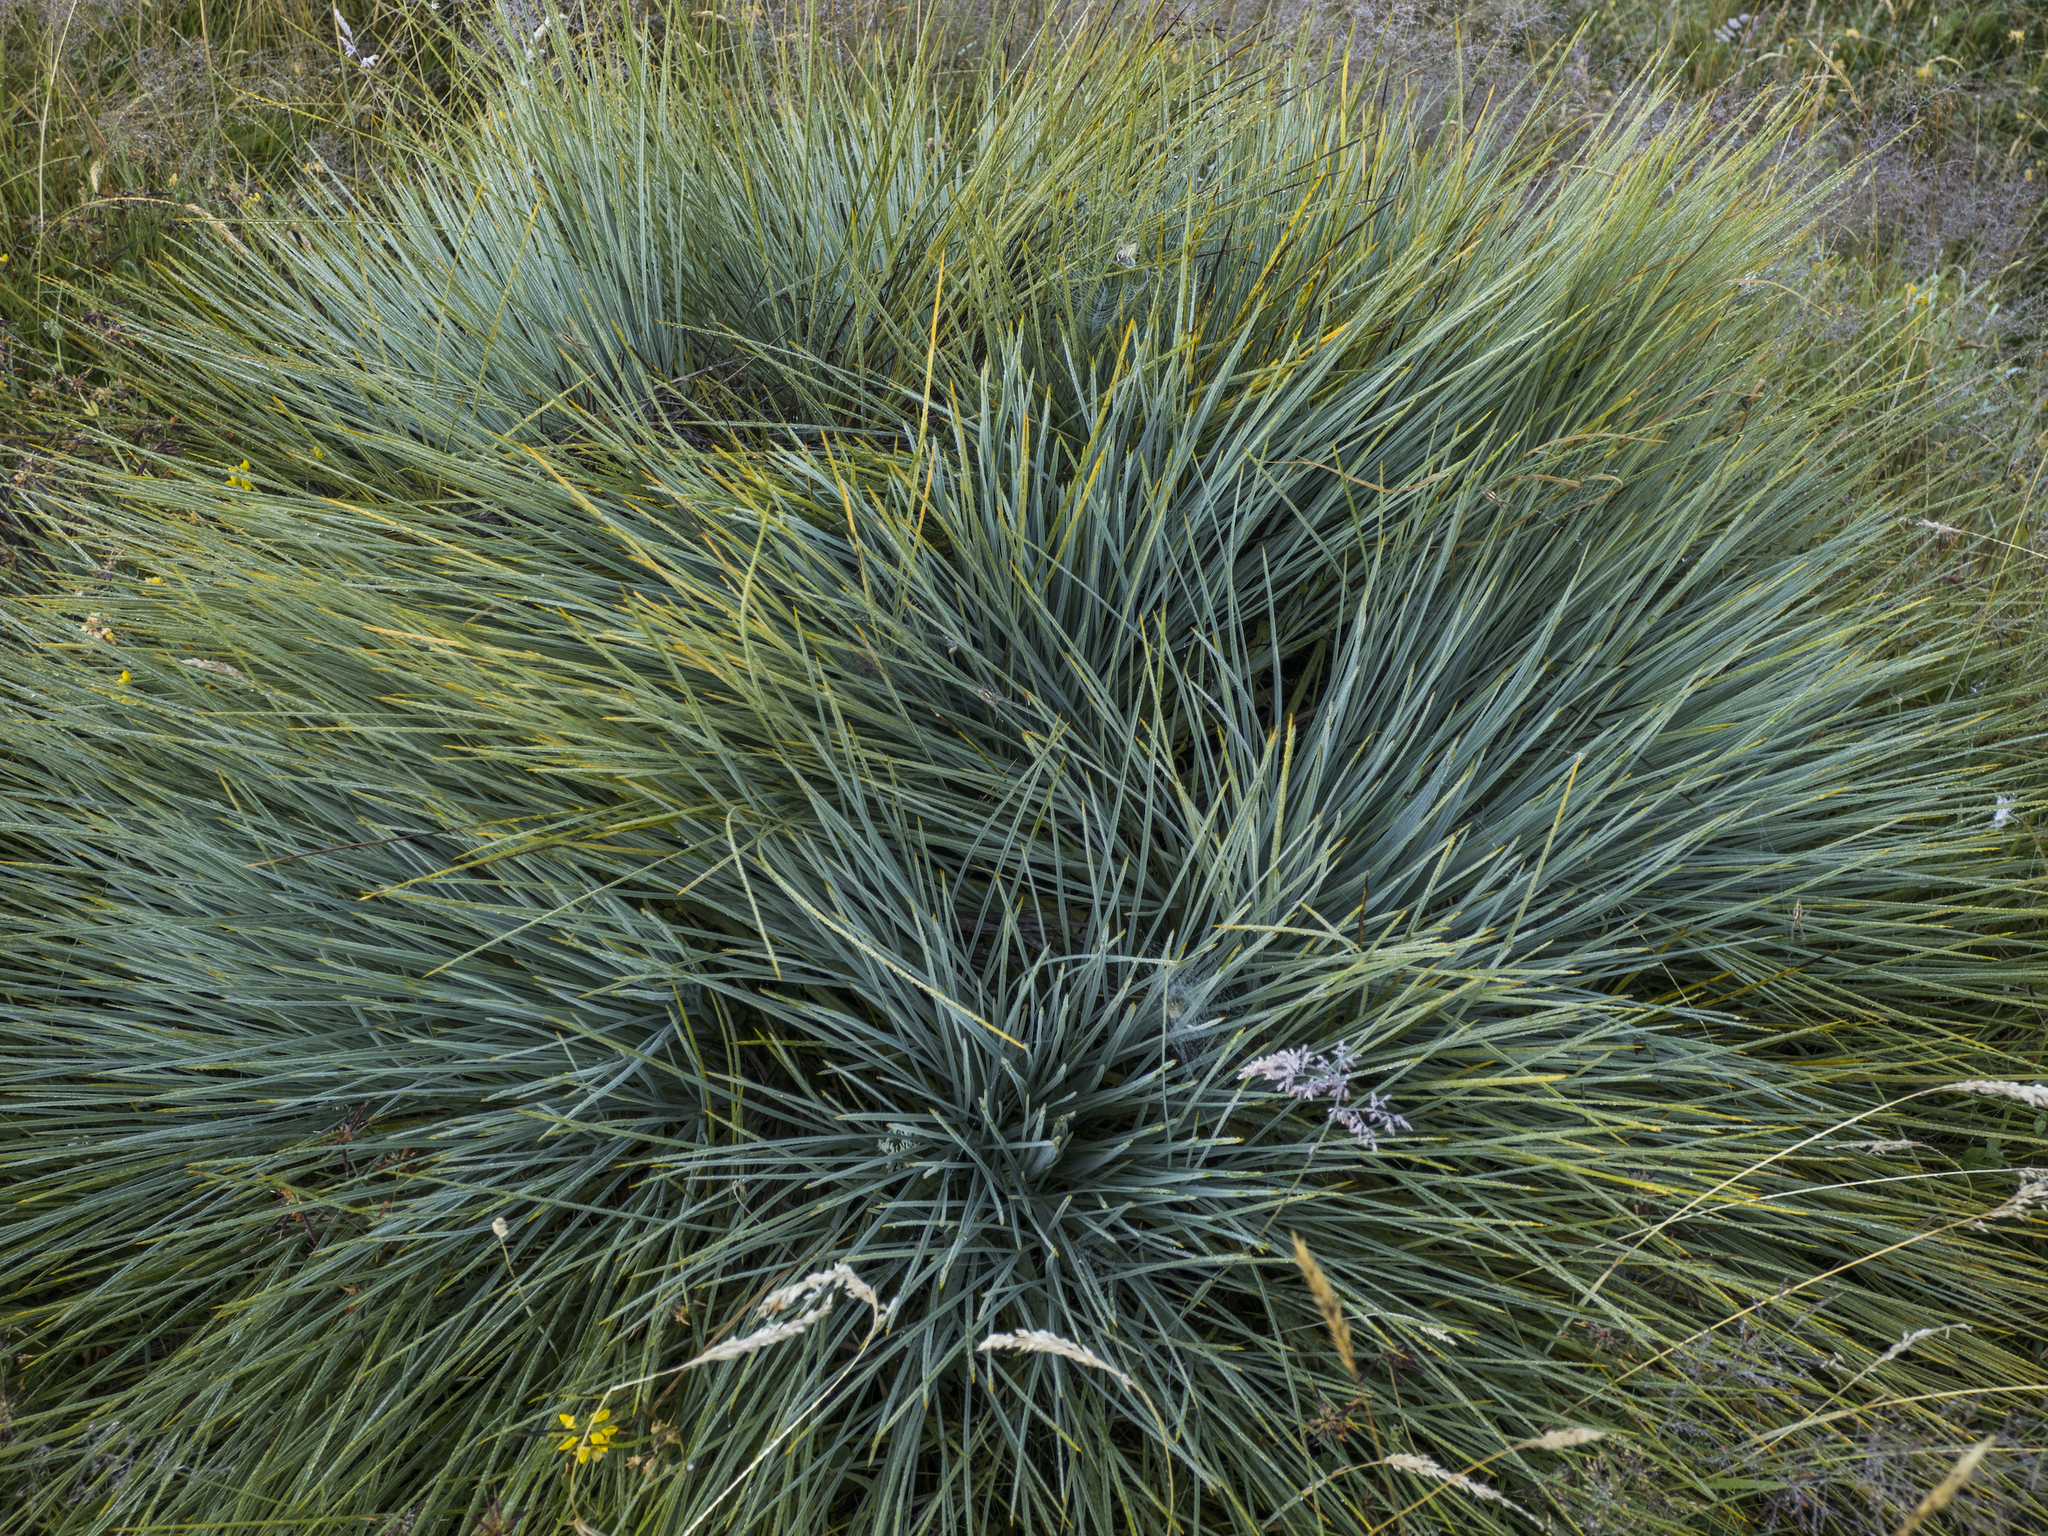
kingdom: Plantae
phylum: Tracheophyta
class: Magnoliopsida
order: Apiales
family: Apiaceae
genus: Aciphylla
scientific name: Aciphylla glaucescens
